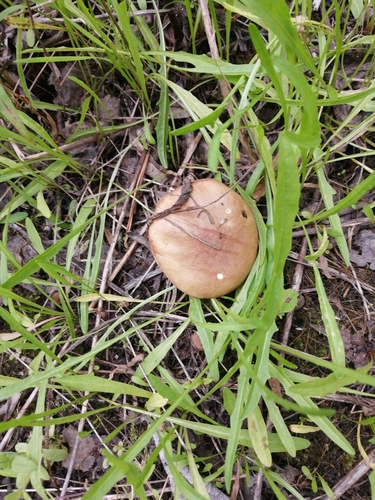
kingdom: Fungi
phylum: Basidiomycota
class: Agaricomycetes
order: Boletales
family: Suillaceae
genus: Suillus
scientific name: Suillus placidus
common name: Slippery white bolete
